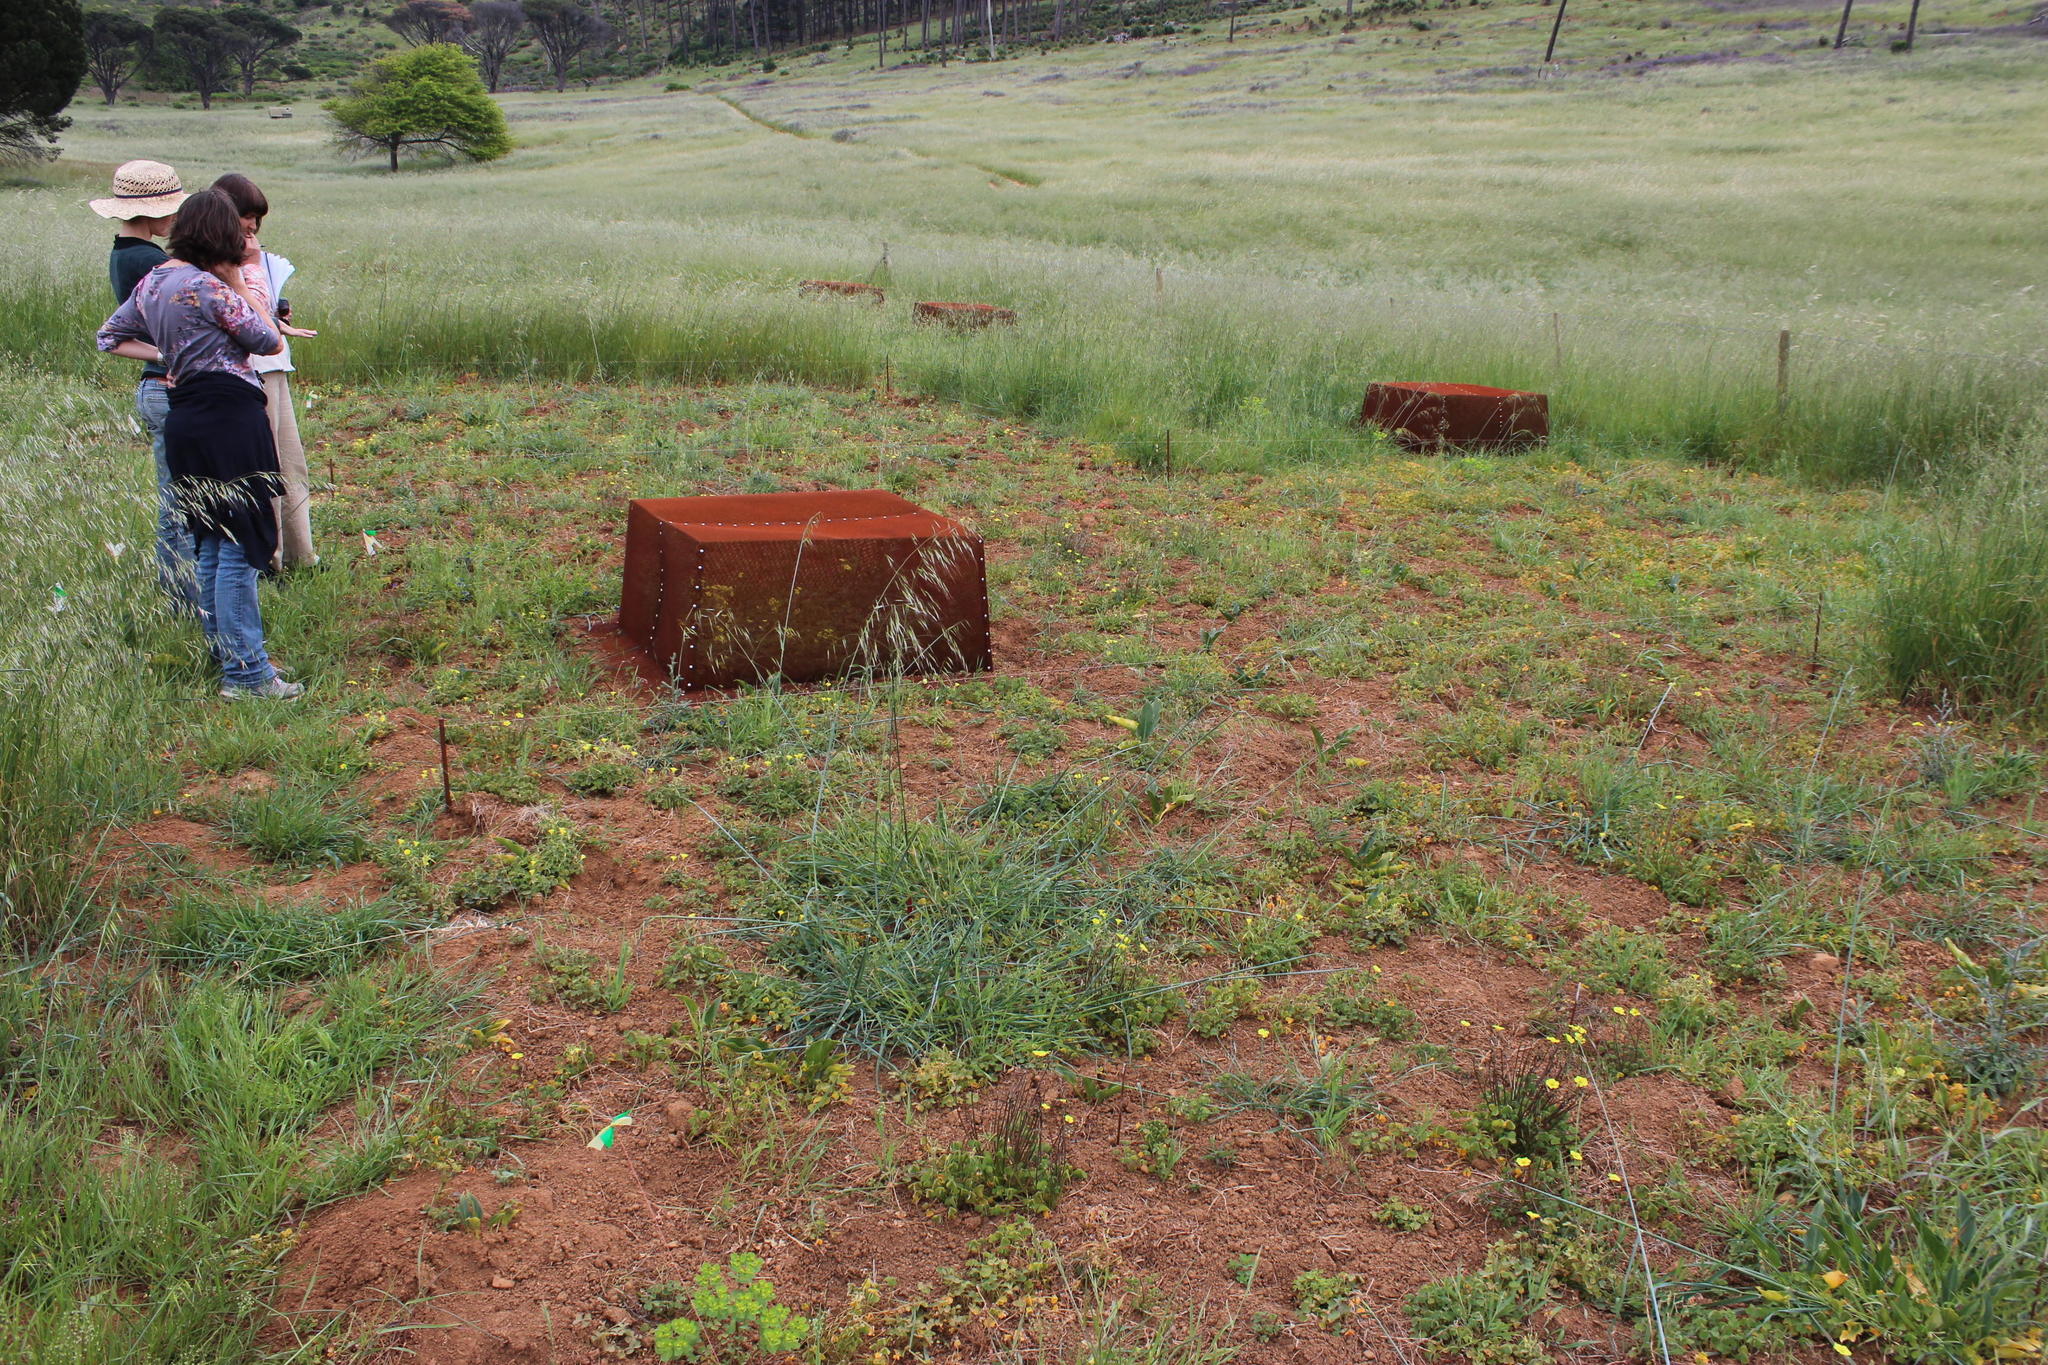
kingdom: Animalia
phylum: Chordata
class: Aves
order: Galliformes
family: Numididae
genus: Numida
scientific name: Numida meleagris
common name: Helmeted guineafowl
